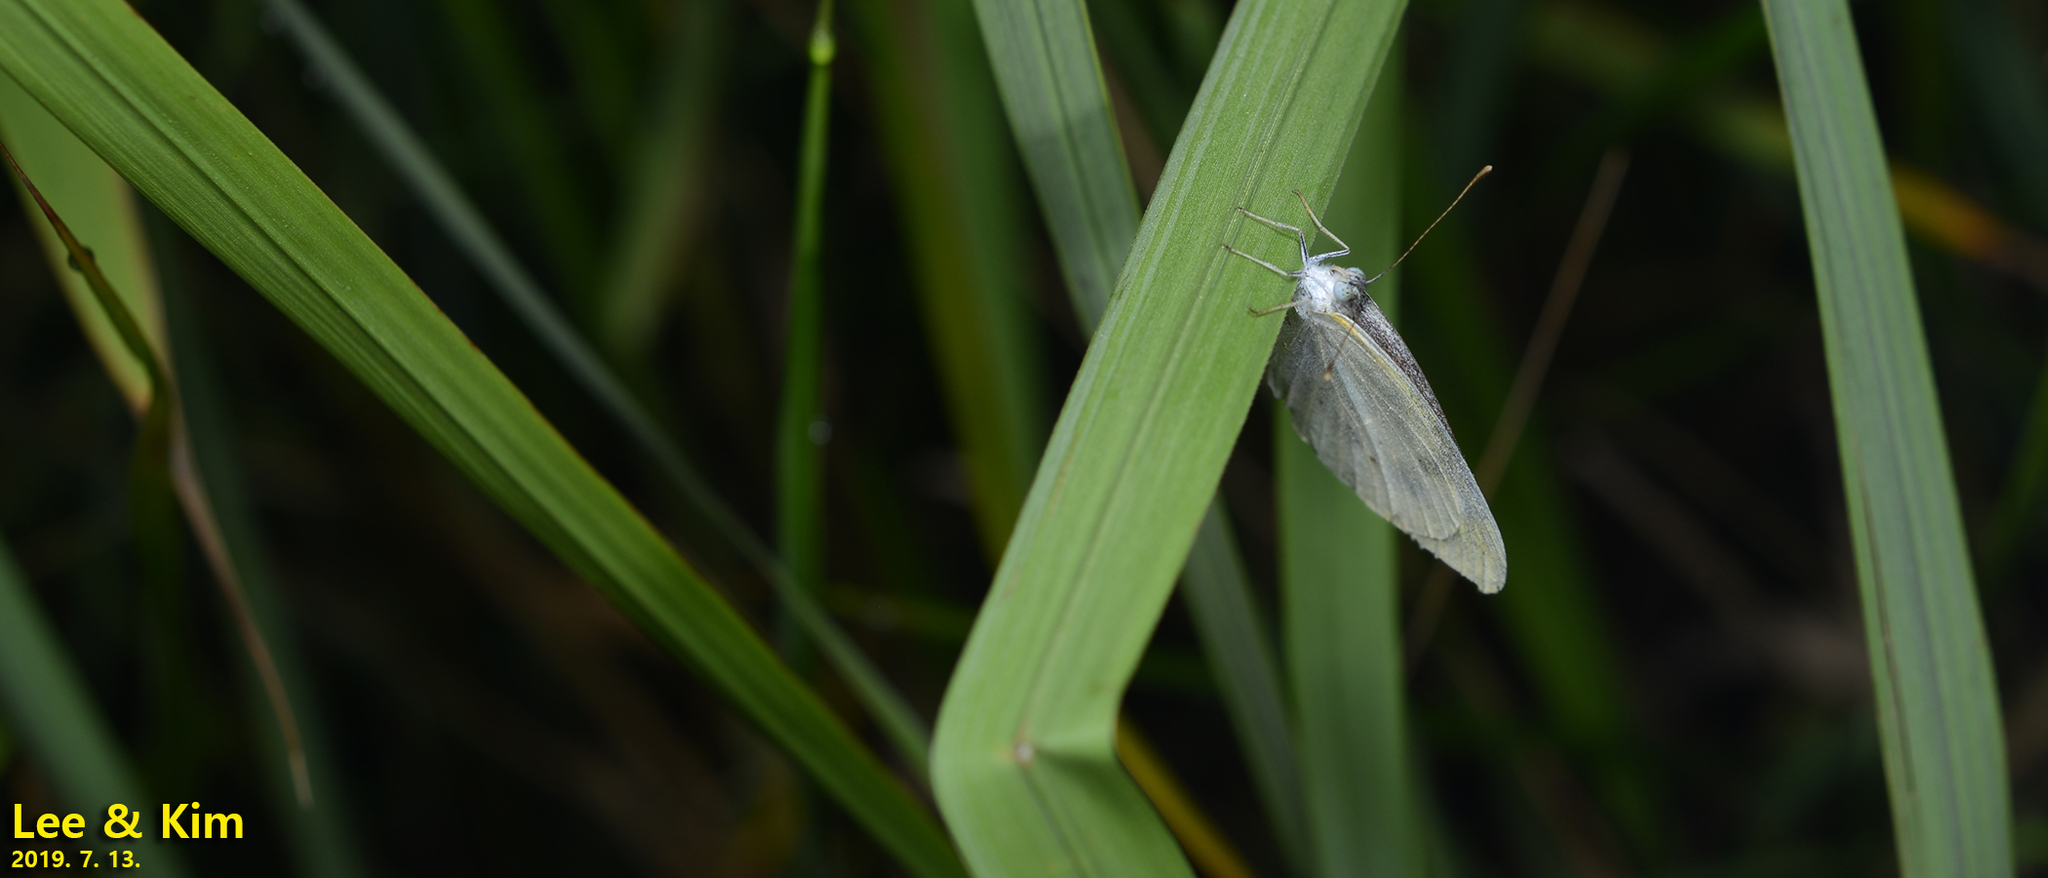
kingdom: Animalia
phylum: Arthropoda
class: Insecta
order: Lepidoptera
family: Pieridae
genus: Pieris
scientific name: Pieris canidia
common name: Indian cabbage white
